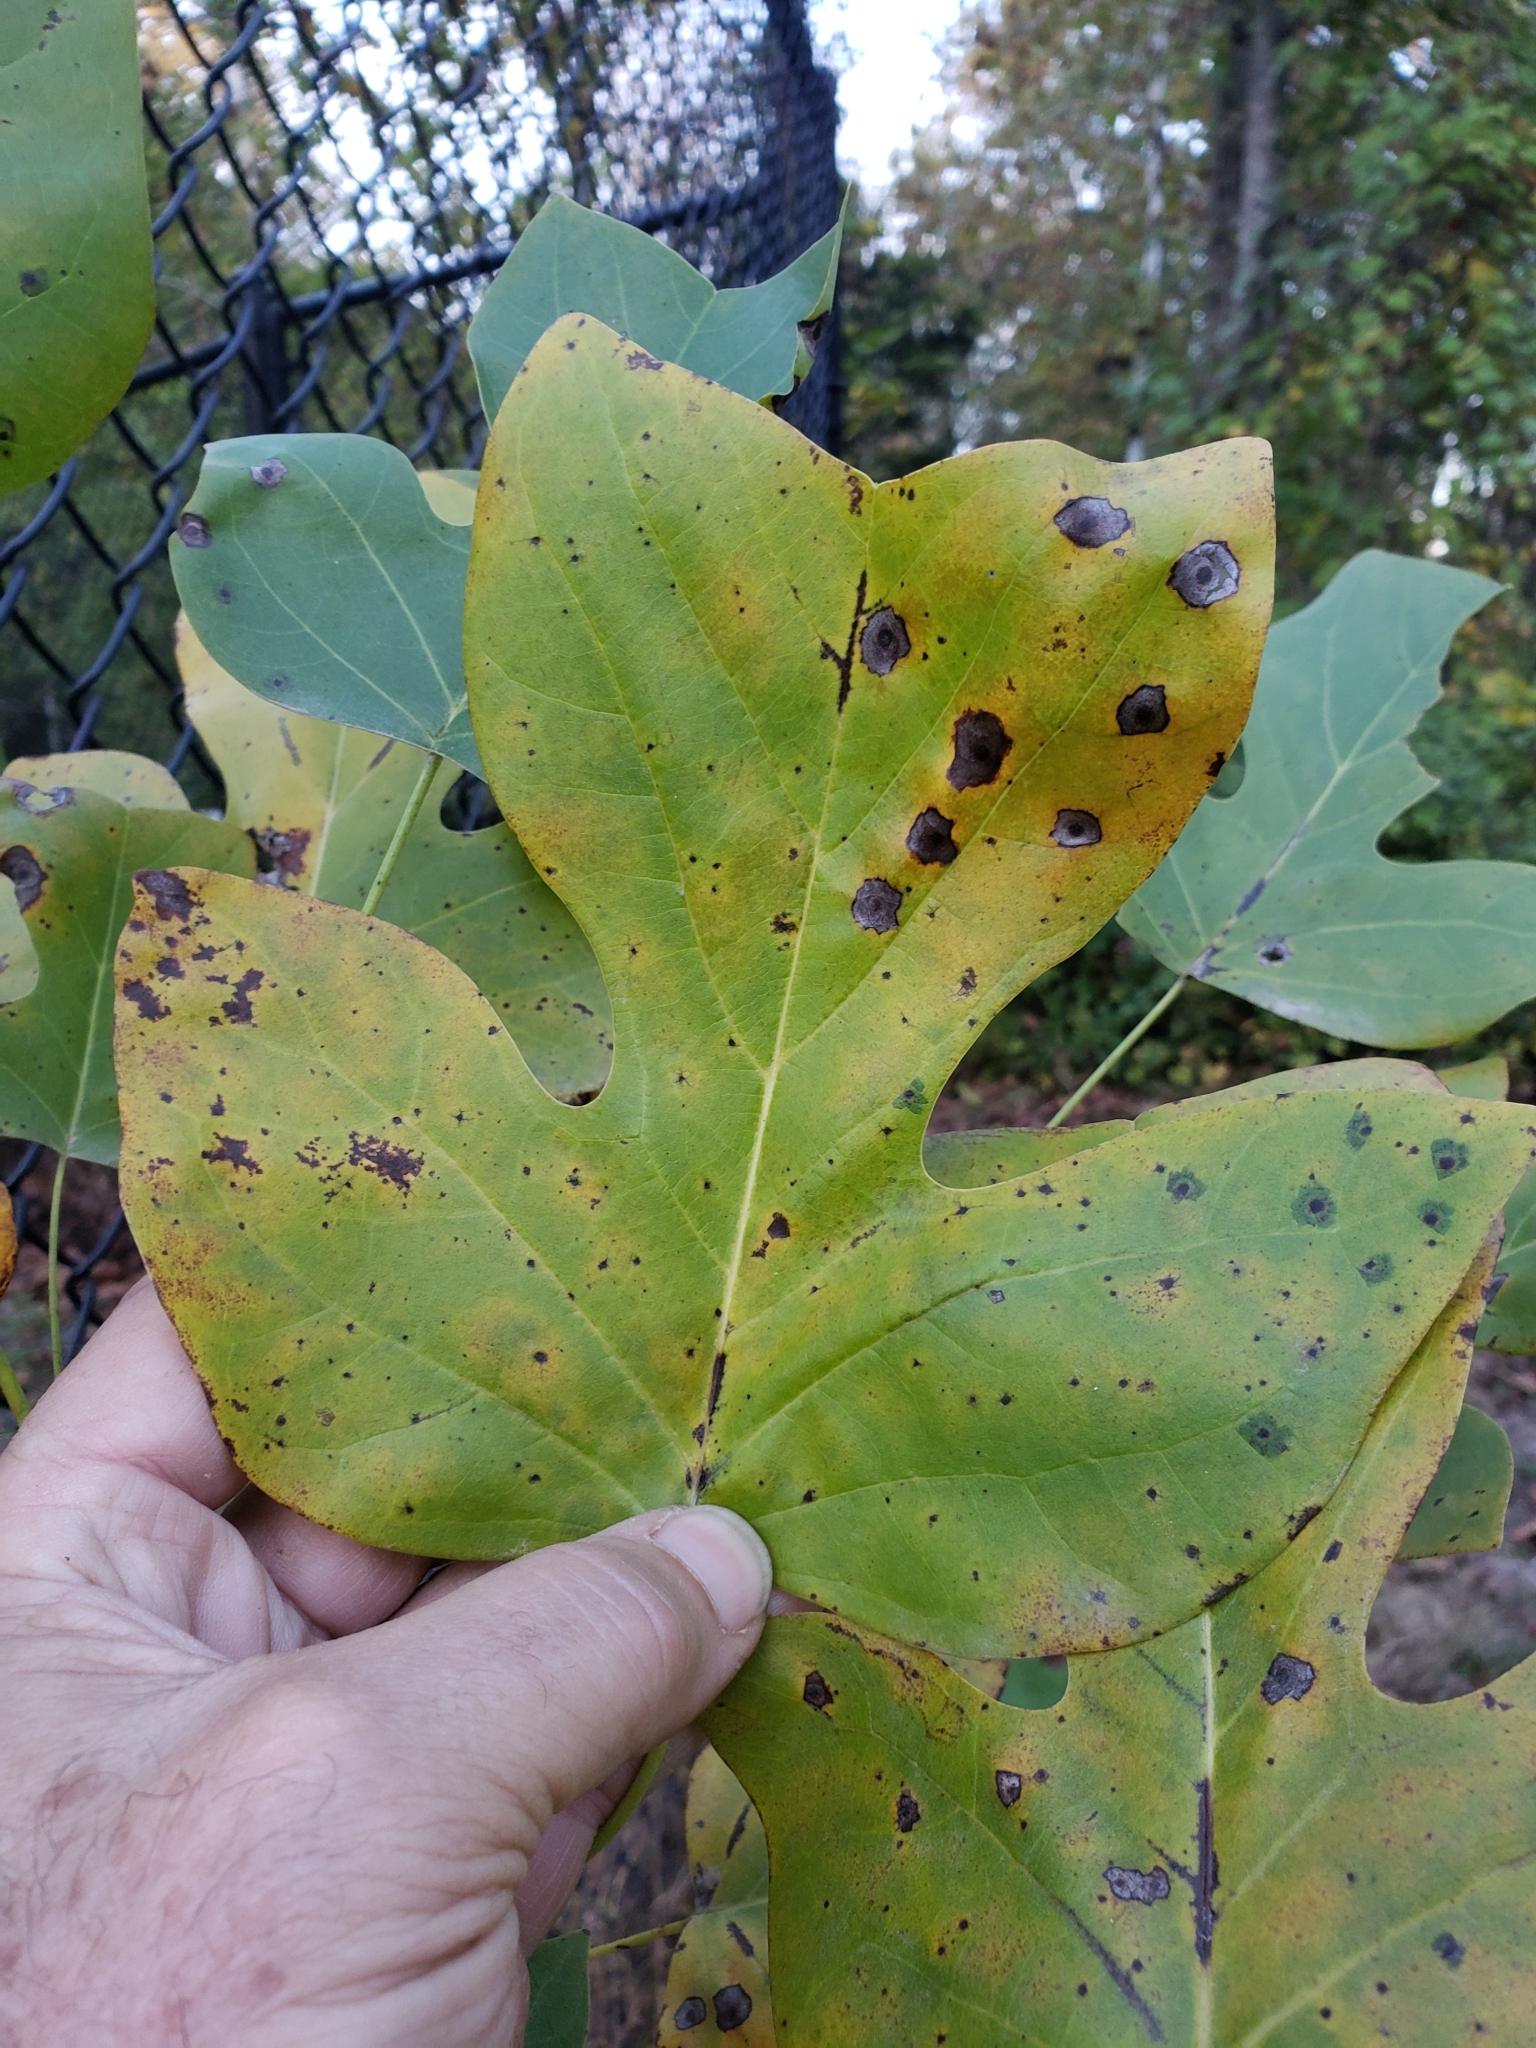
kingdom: Animalia
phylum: Arthropoda
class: Insecta
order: Diptera
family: Cecidomyiidae
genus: Resseliella
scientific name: Resseliella liriodendri
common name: Tulip tree leaf spot gall midge
